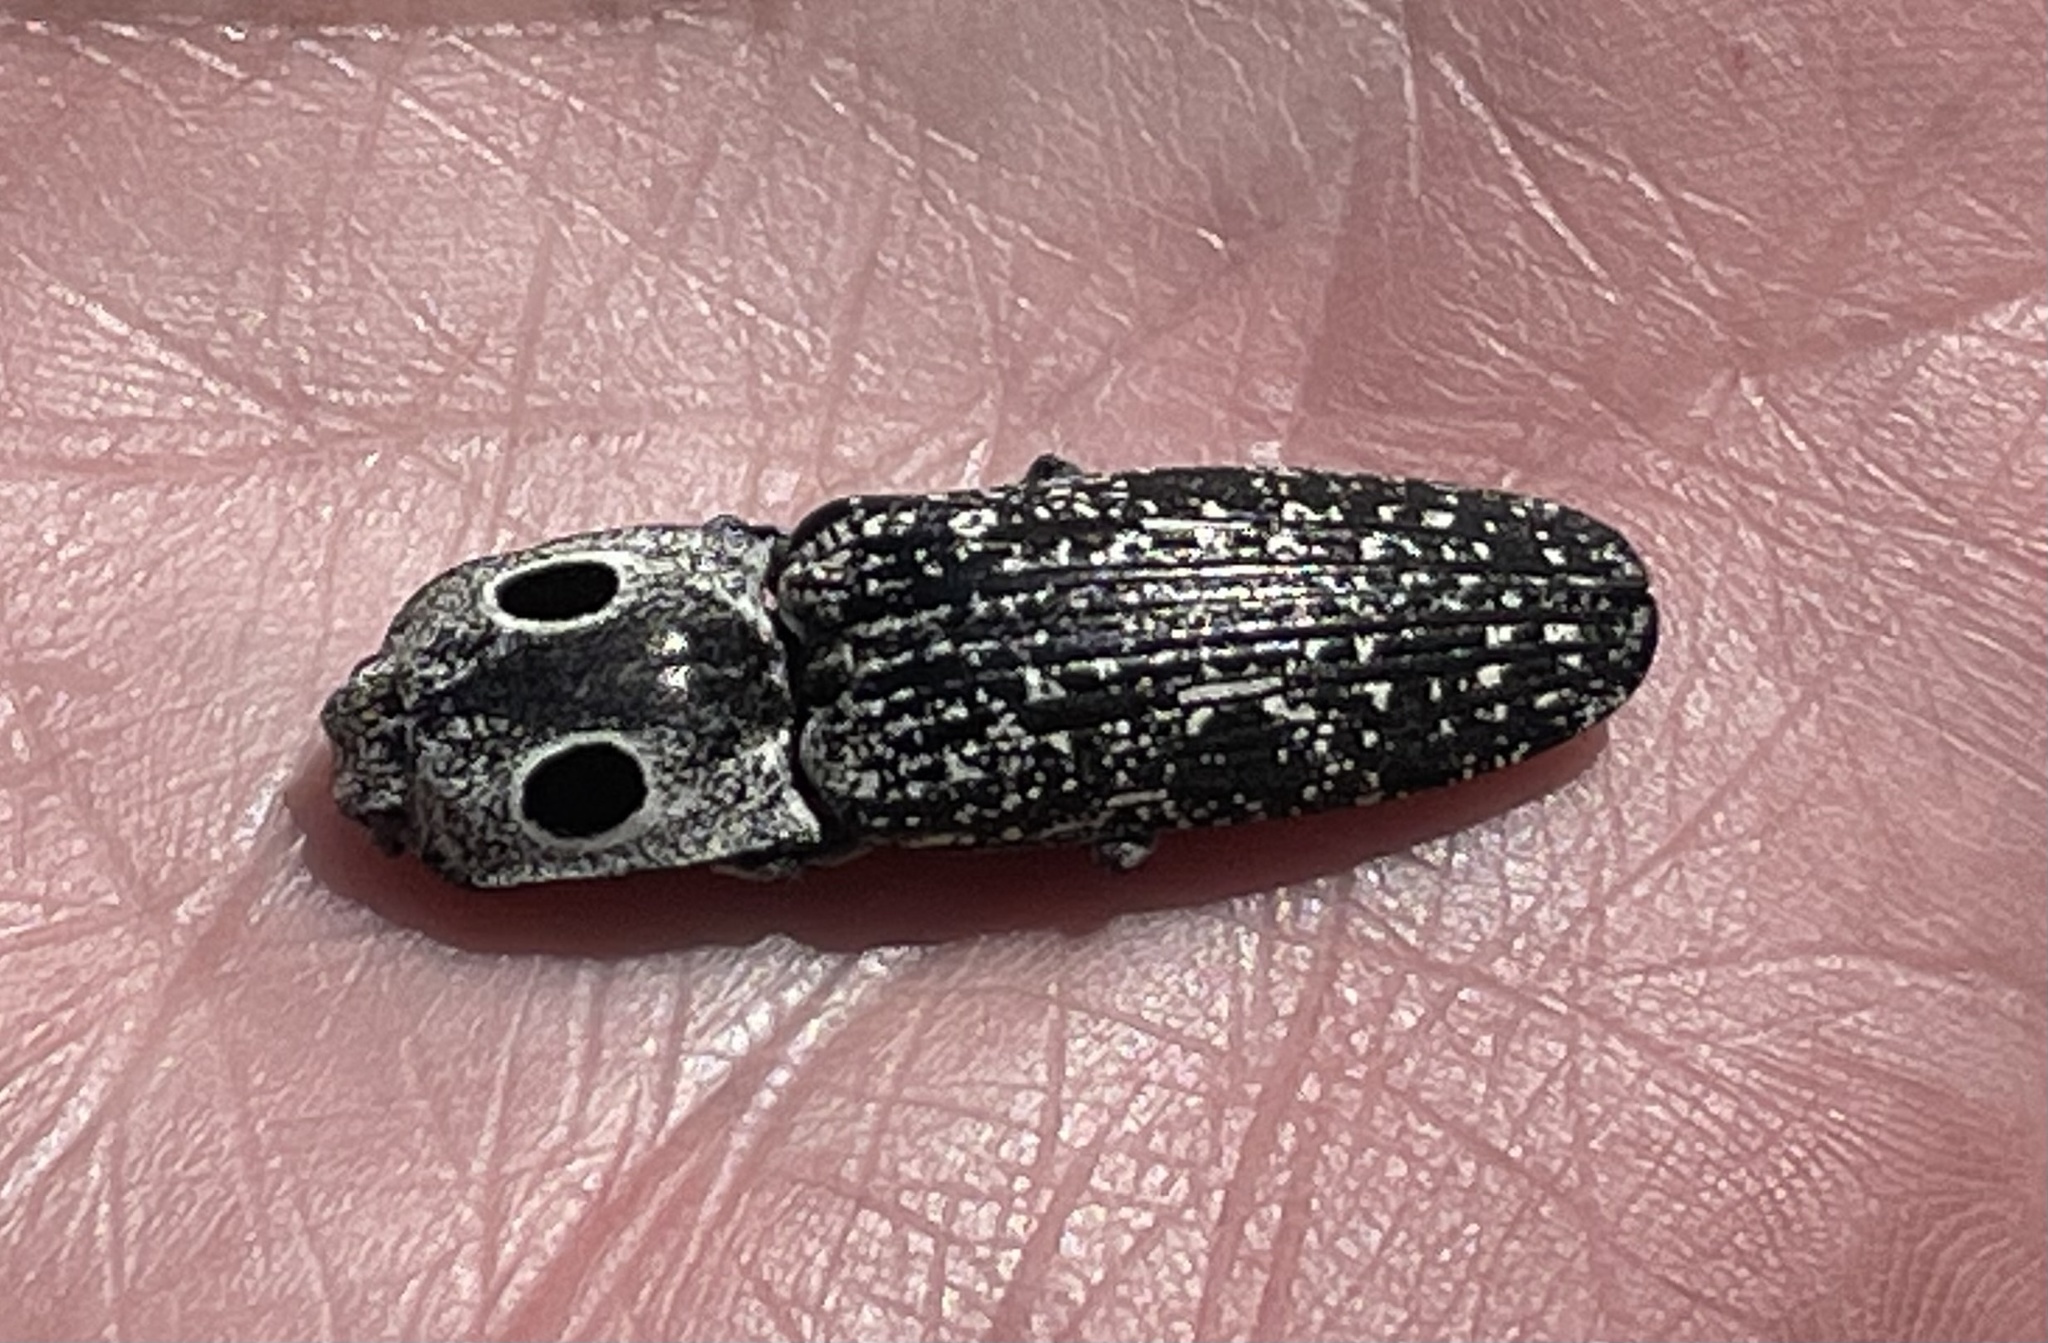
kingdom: Animalia
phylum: Arthropoda
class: Insecta
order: Coleoptera
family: Elateridae
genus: Alaus
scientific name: Alaus oculatus
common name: Eastern eyed click beetle
